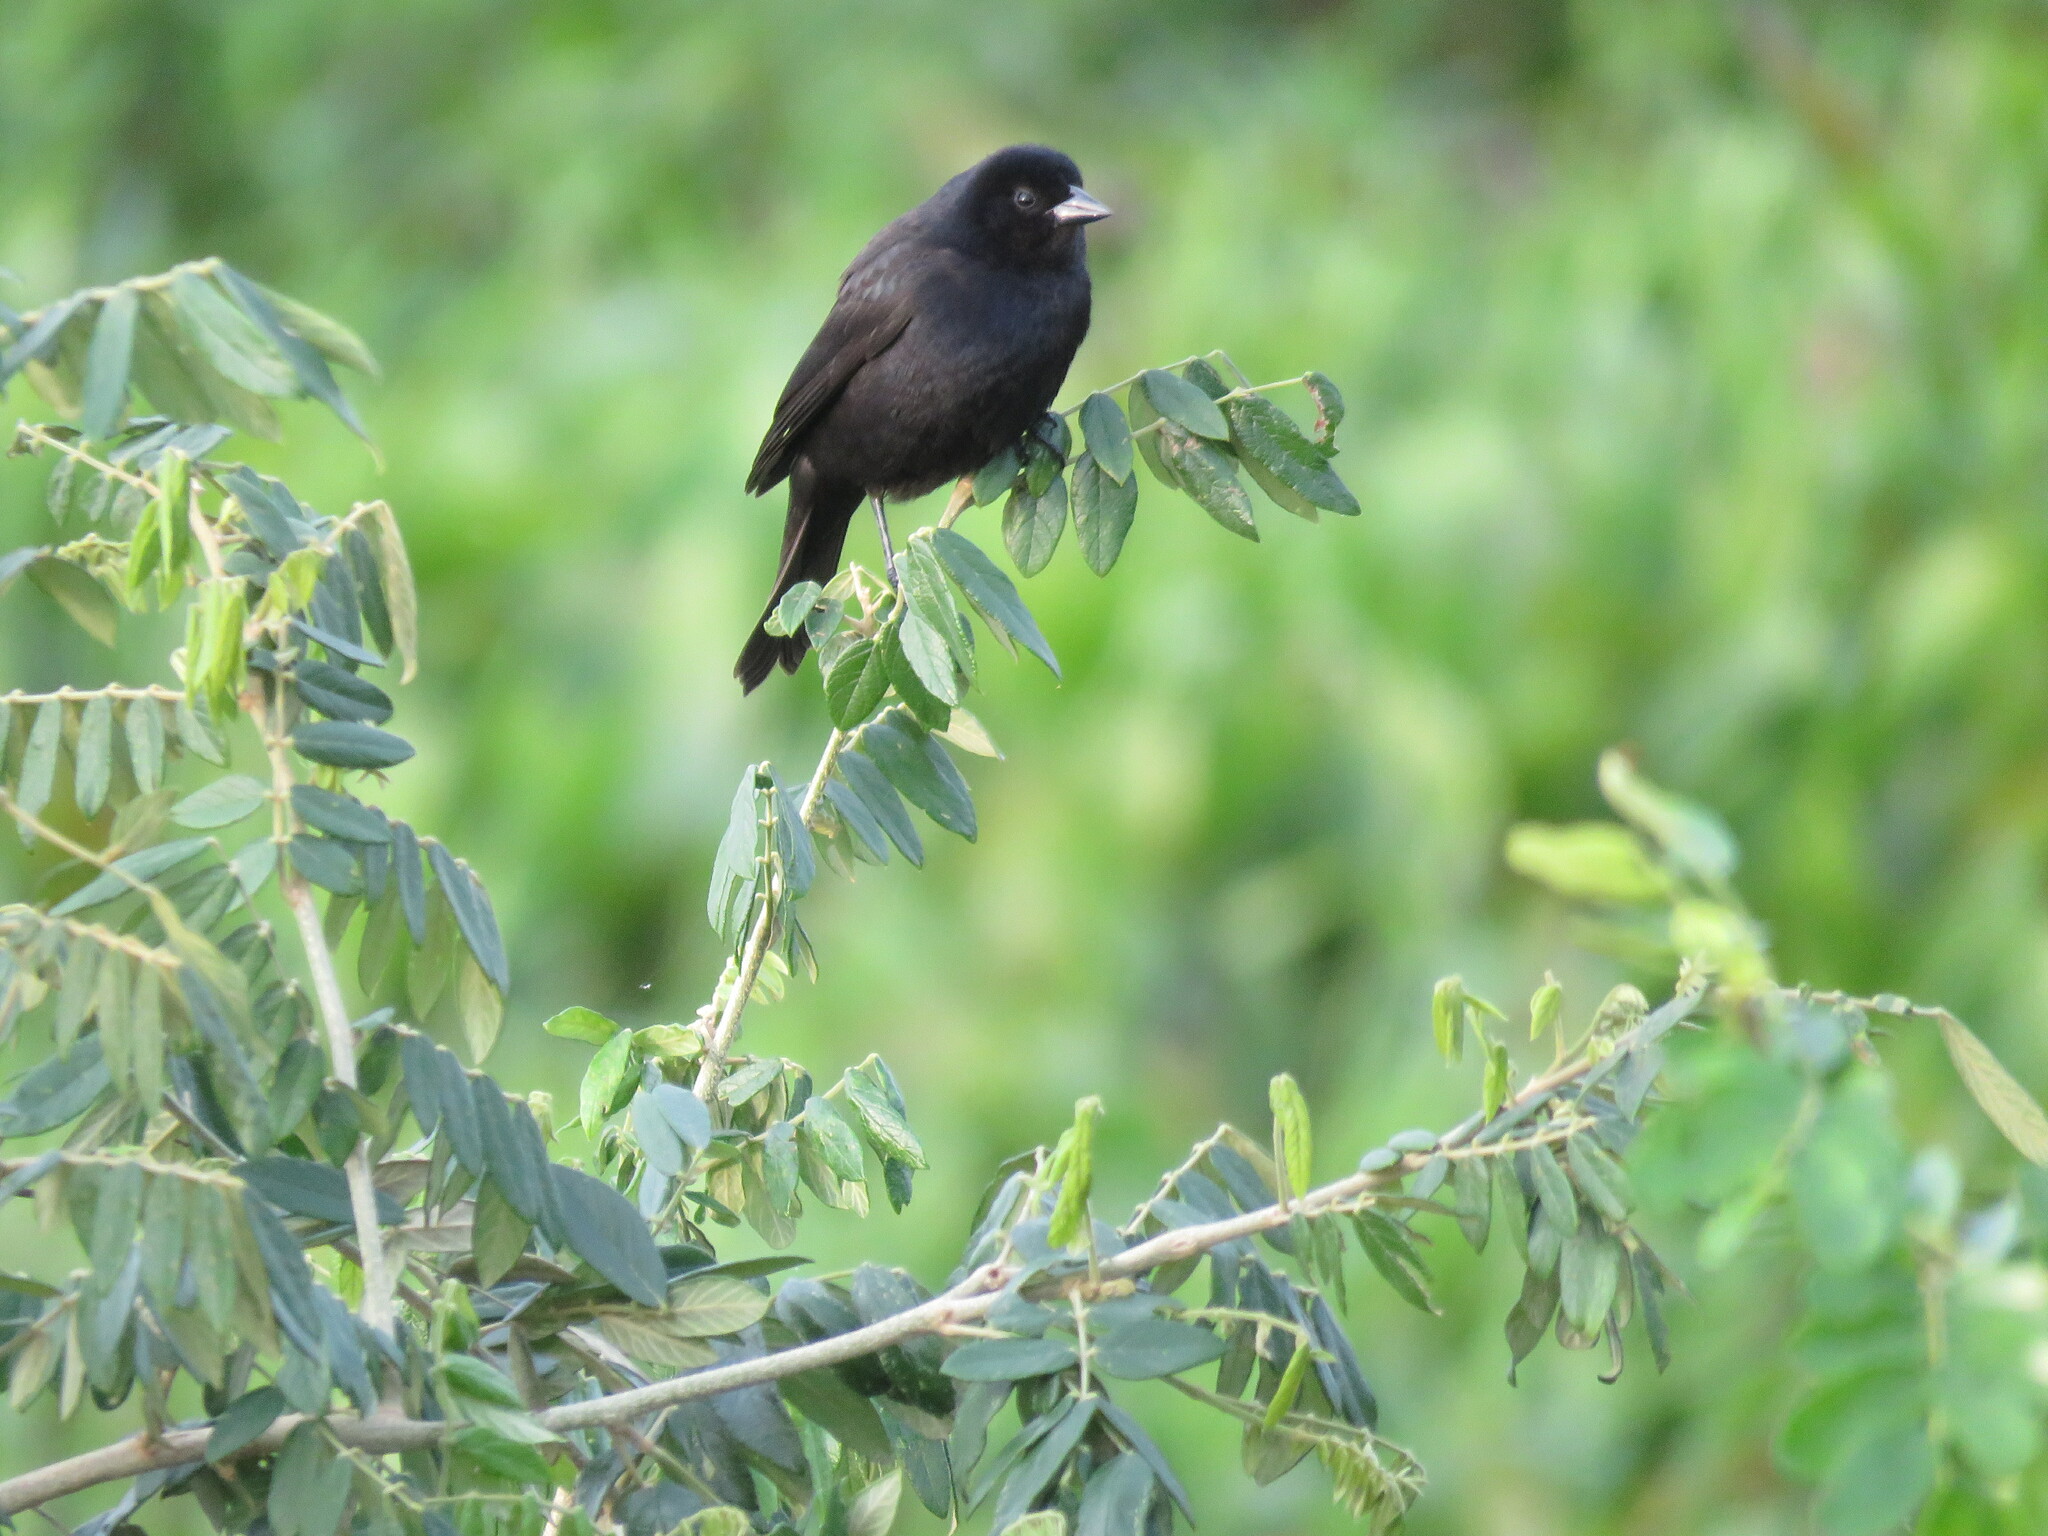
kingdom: Animalia
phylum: Chordata
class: Aves
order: Passeriformes
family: Icteridae
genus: Molothrus
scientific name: Molothrus rufoaxillaris
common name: Screaming cowbird
